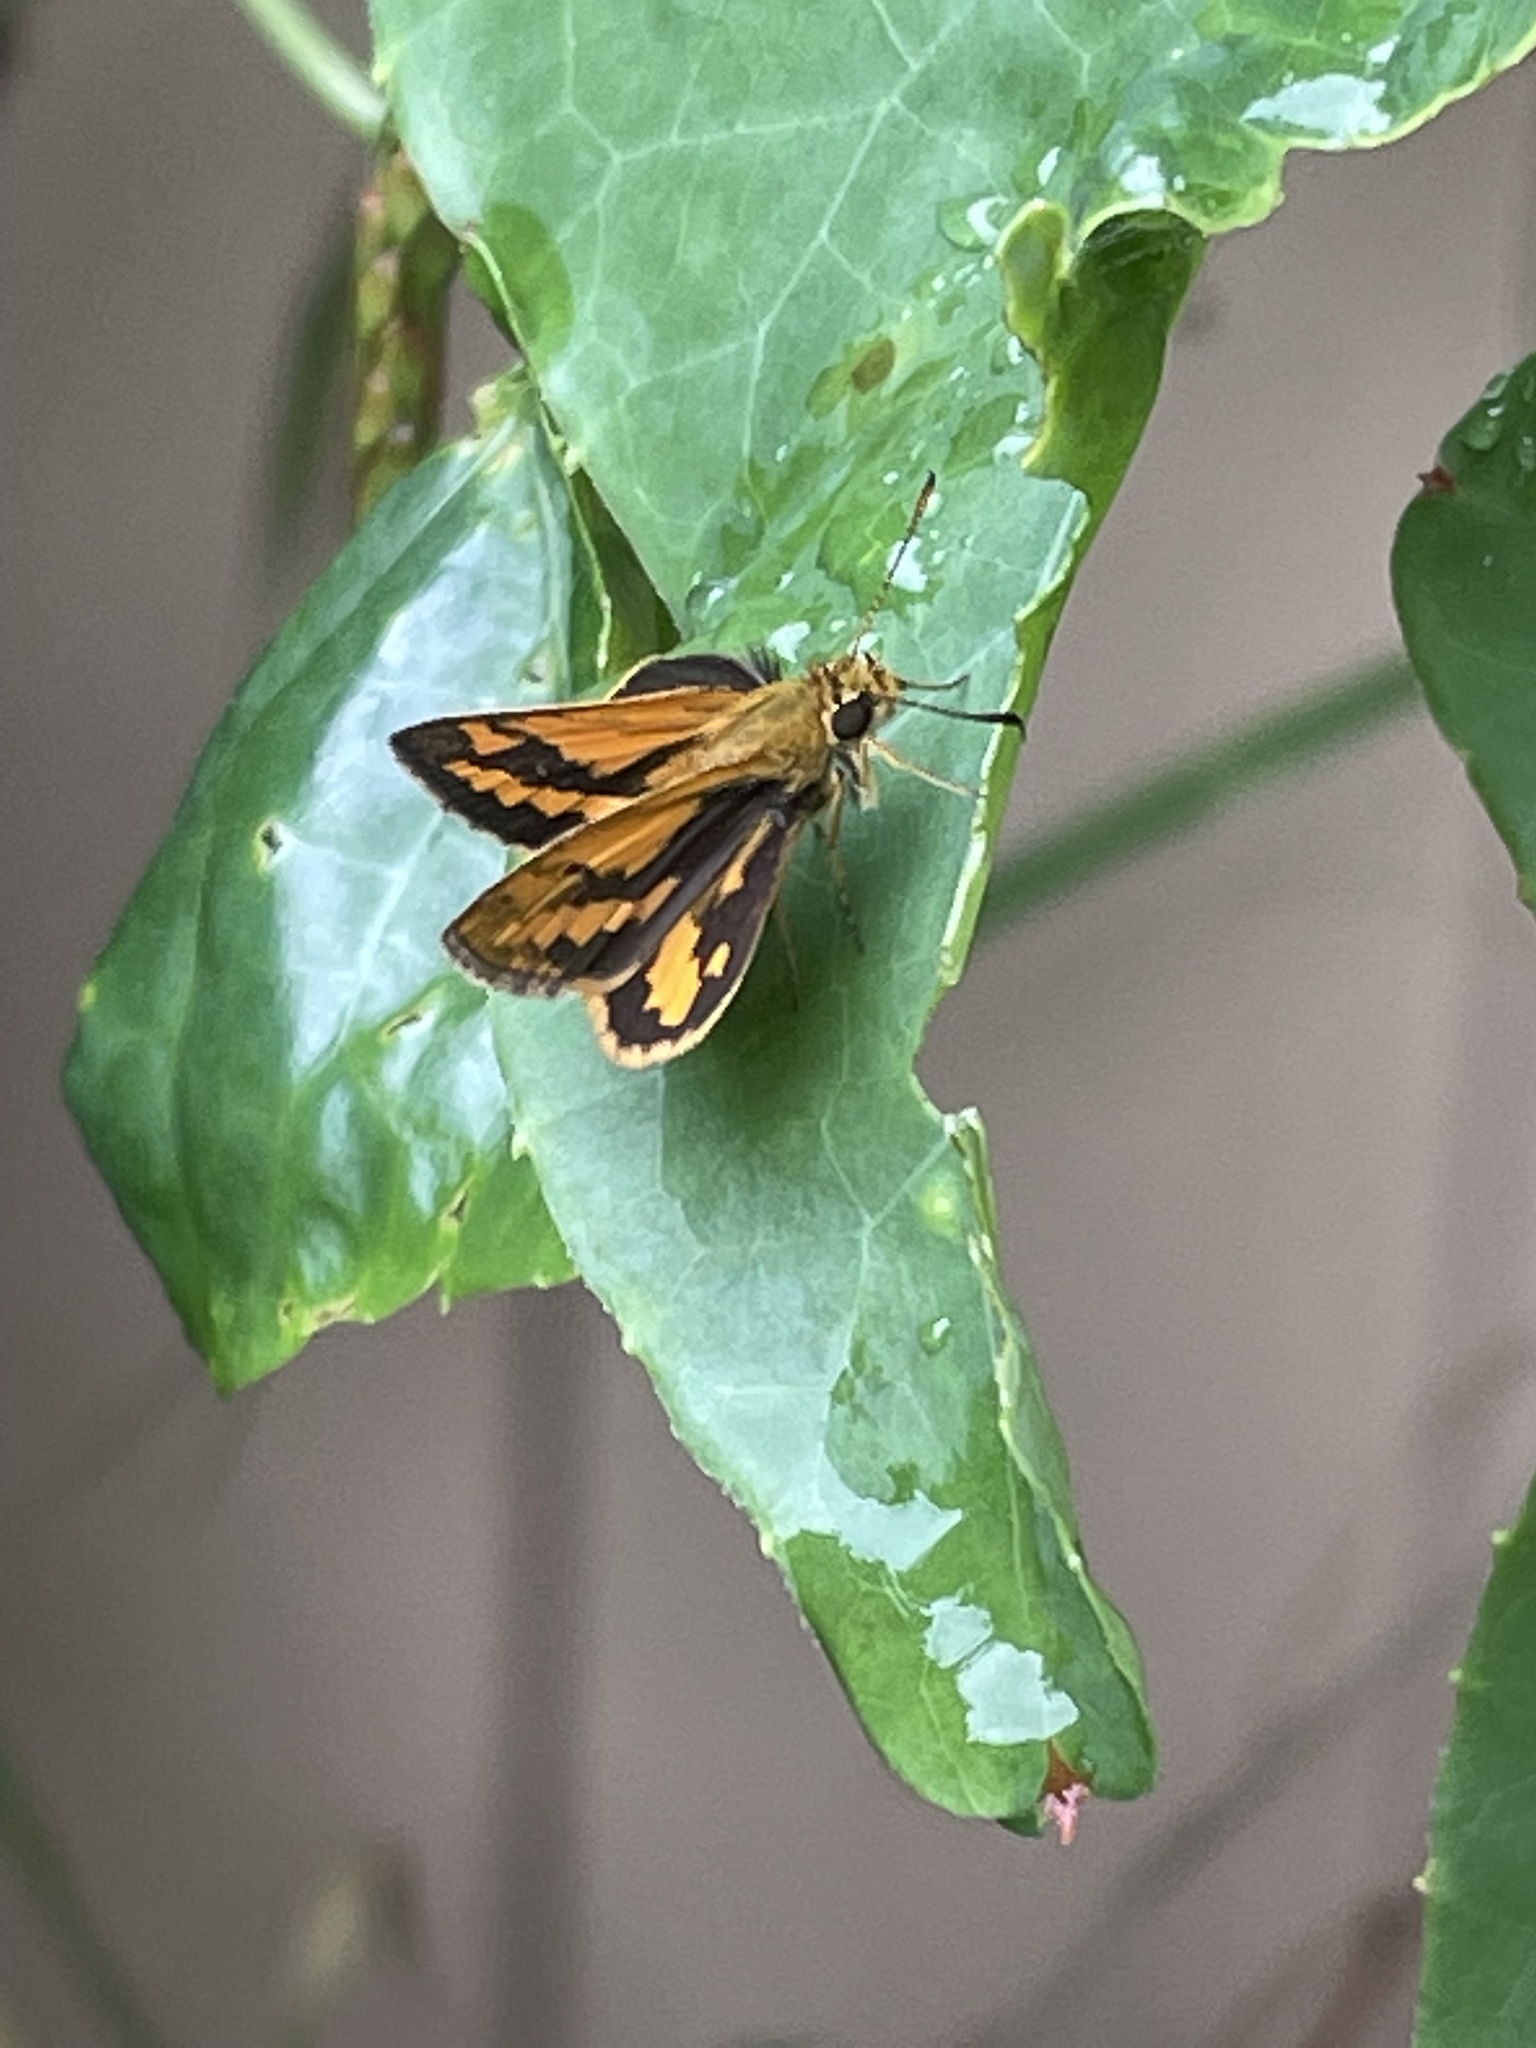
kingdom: Animalia
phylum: Arthropoda
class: Insecta
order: Lepidoptera
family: Hesperiidae
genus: Suniana
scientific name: Suniana sunias
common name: Wide-brand grass-dart
